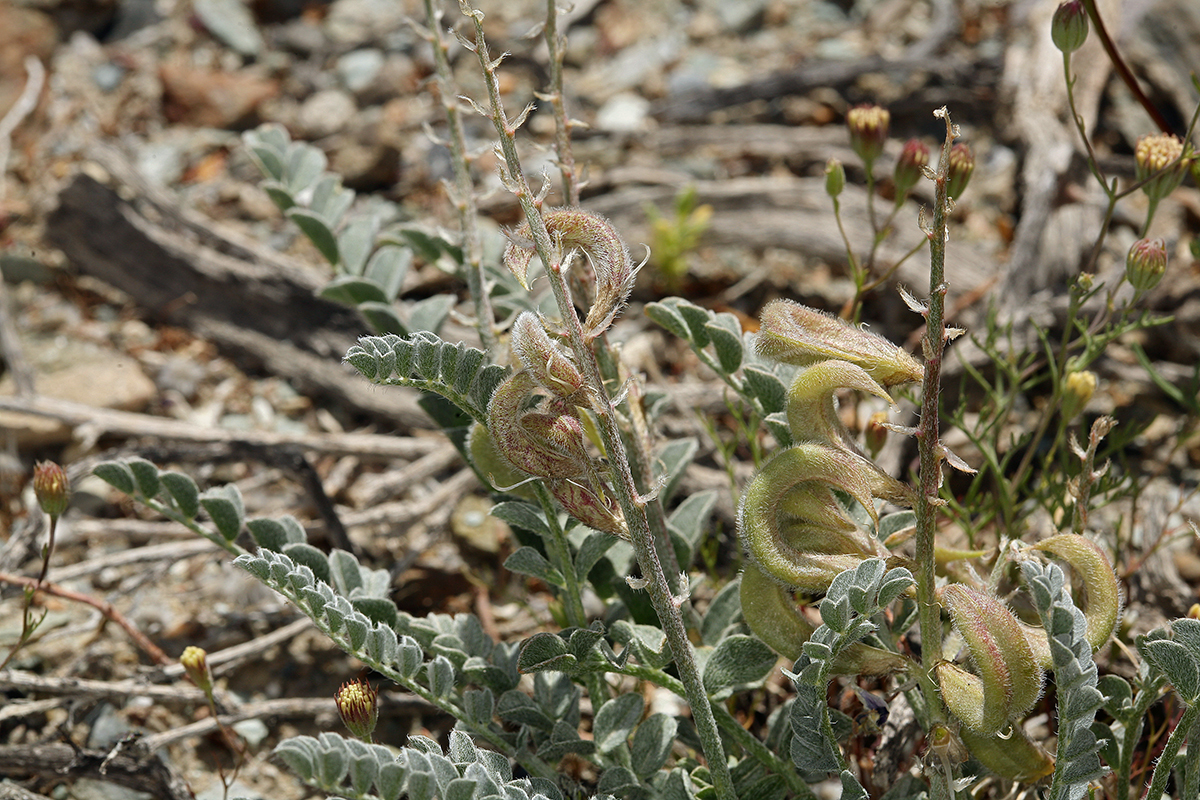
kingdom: Plantae
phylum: Tracheophyta
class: Magnoliopsida
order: Fabales
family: Fabaceae
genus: Astragalus
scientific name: Astragalus layneae
